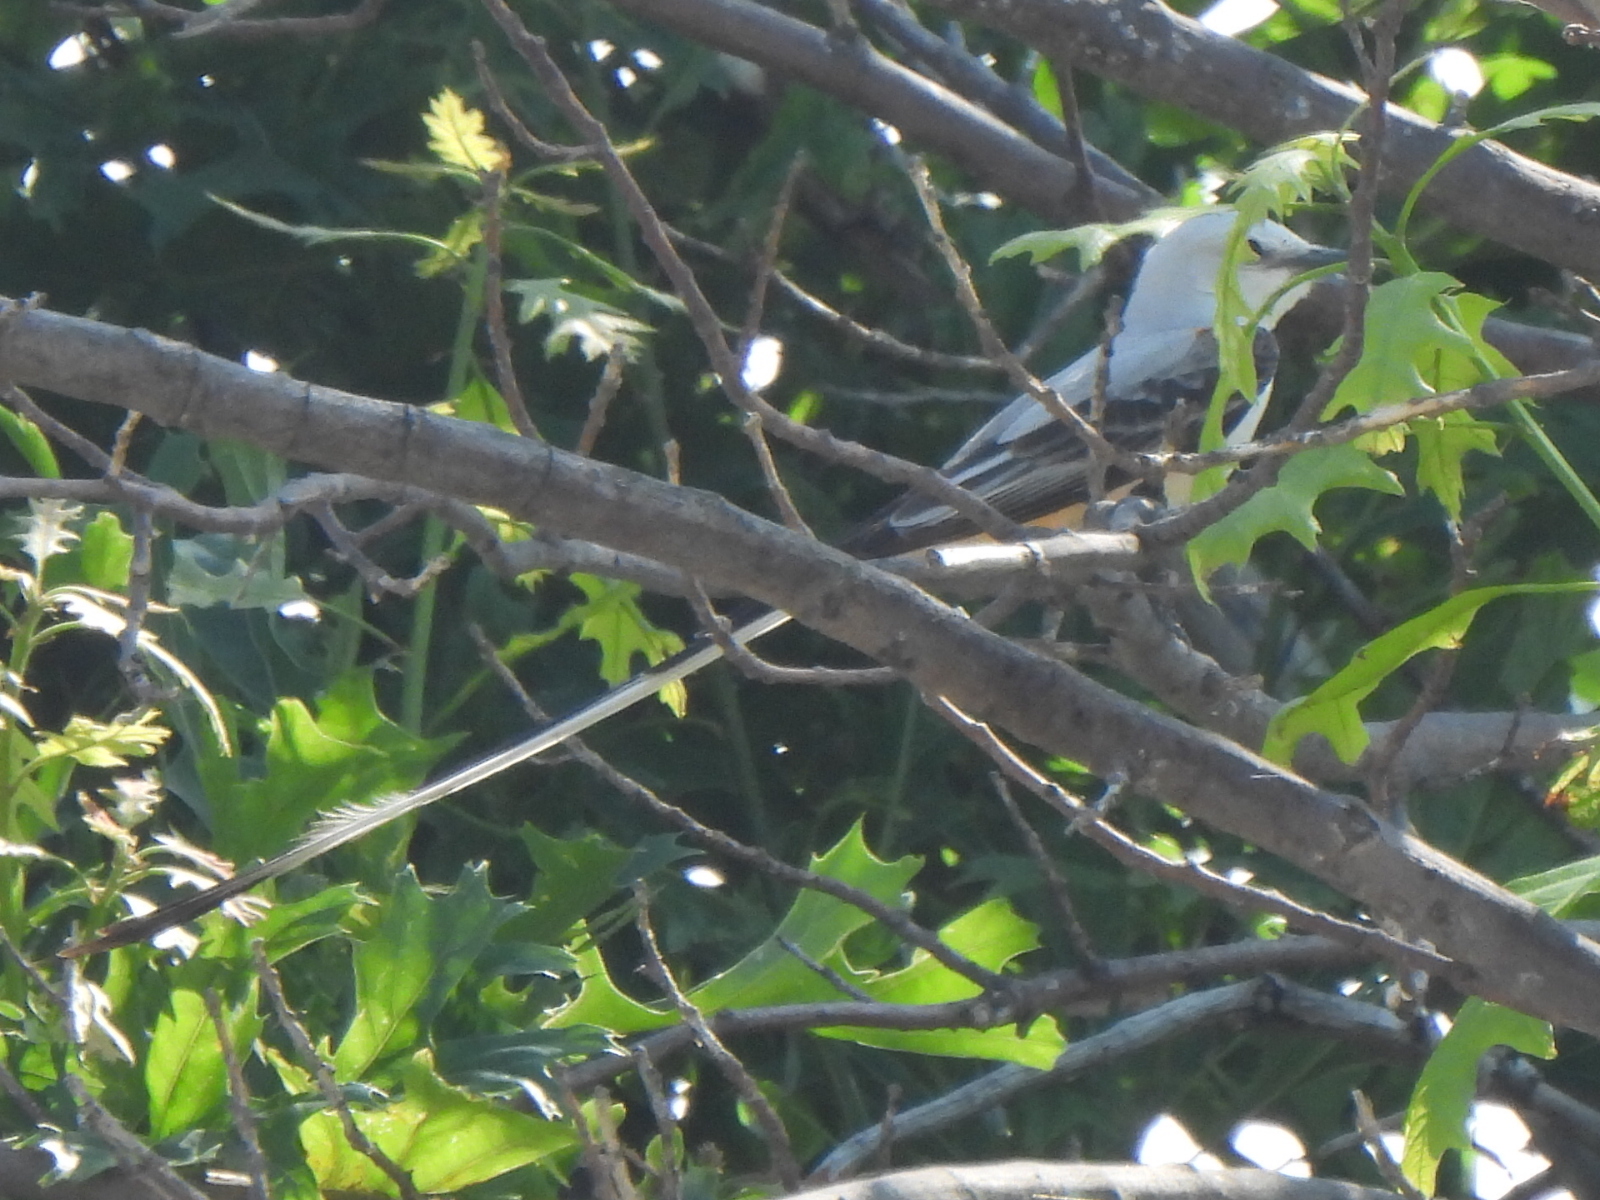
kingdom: Animalia
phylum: Chordata
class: Aves
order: Passeriformes
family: Tyrannidae
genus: Tyrannus
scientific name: Tyrannus forficatus
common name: Scissor-tailed flycatcher
